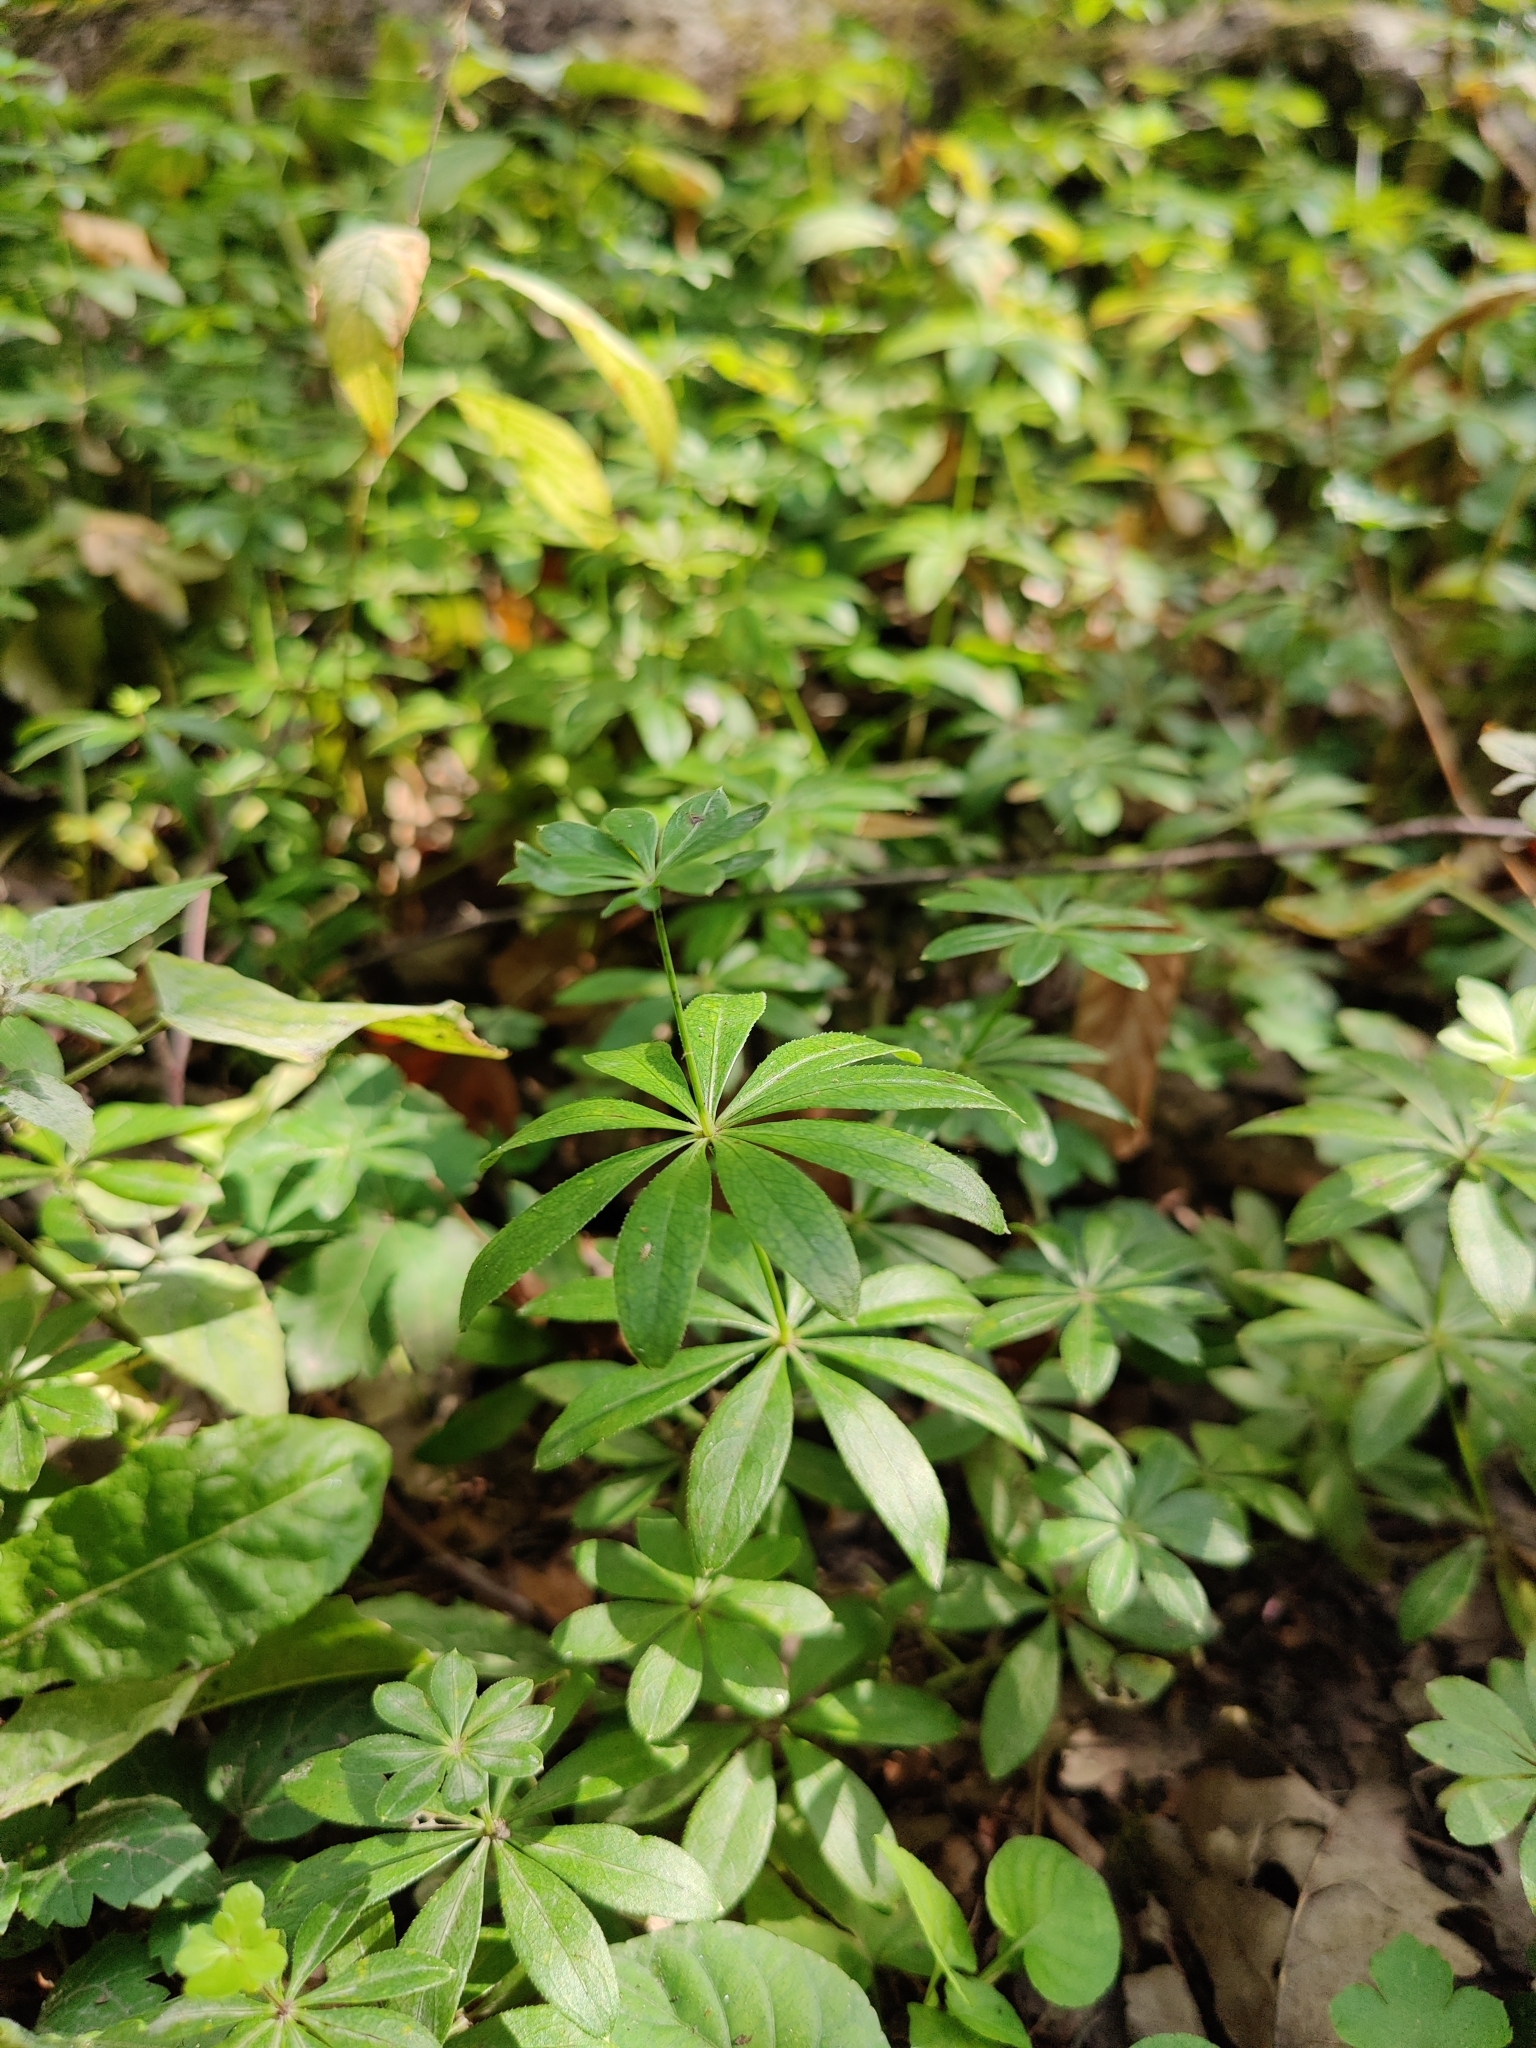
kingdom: Plantae
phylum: Tracheophyta
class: Magnoliopsida
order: Gentianales
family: Rubiaceae
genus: Galium
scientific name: Galium odoratum
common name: Sweet woodruff
